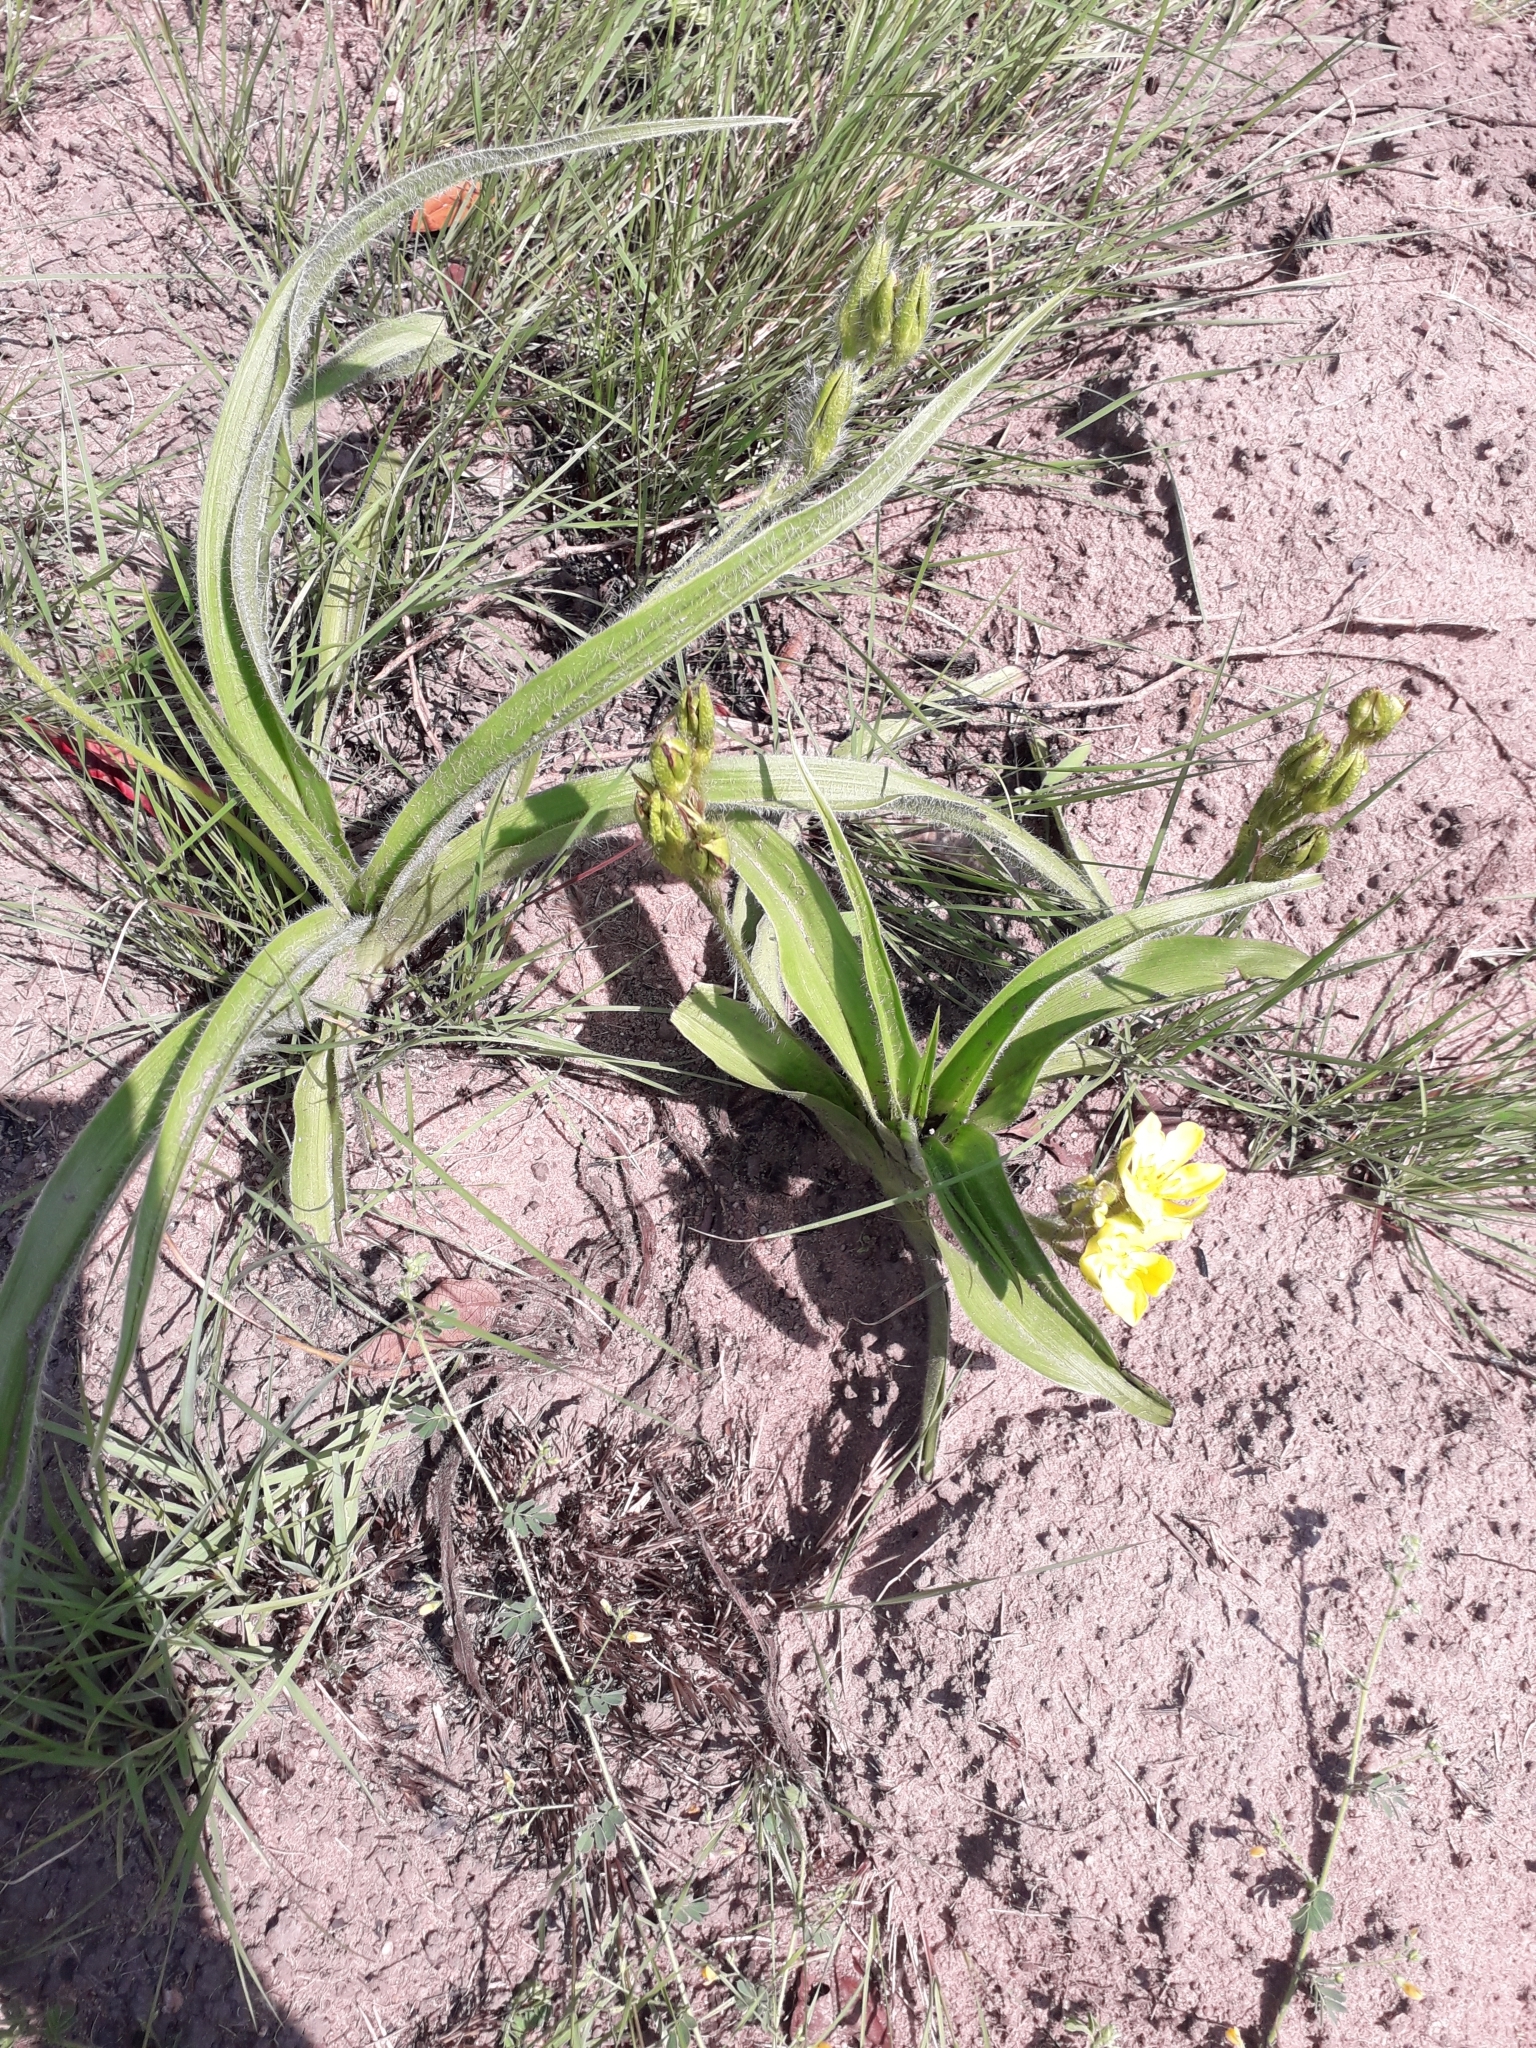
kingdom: Plantae
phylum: Tracheophyta
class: Liliopsida
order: Asparagales
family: Hypoxidaceae
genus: Hypoxis
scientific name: Hypoxis hemerocallidea
